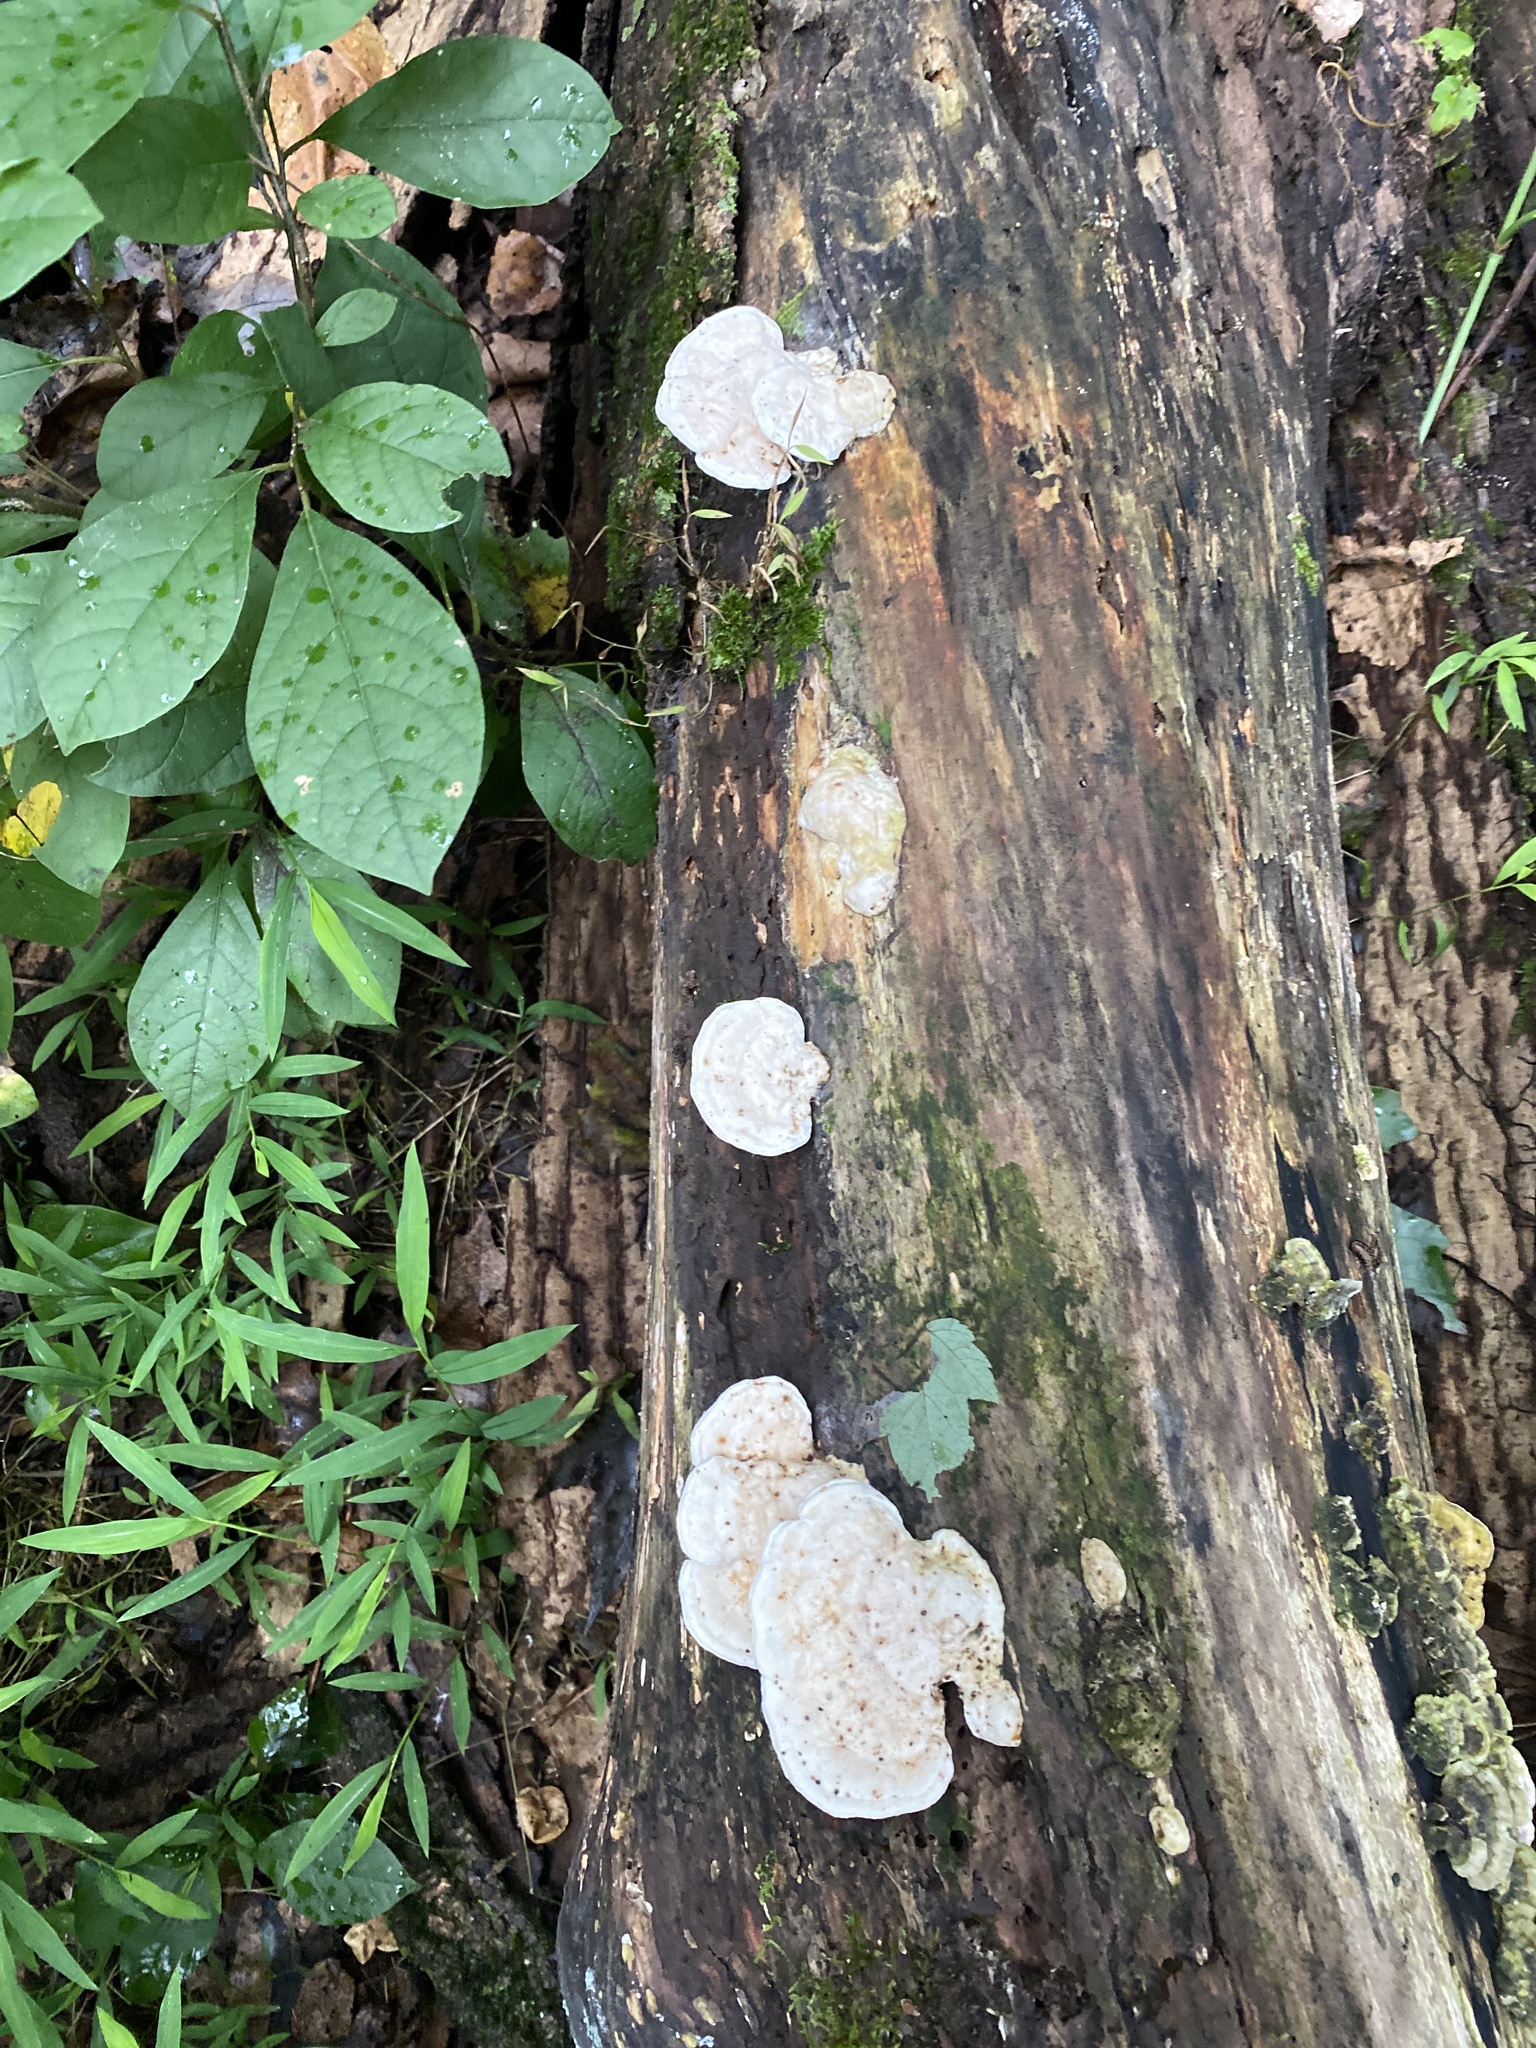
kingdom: Fungi
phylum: Basidiomycota
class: Agaricomycetes
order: Polyporales
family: Polyporaceae
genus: Trametes
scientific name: Trametes gibbosa
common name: Lumpy bracket
